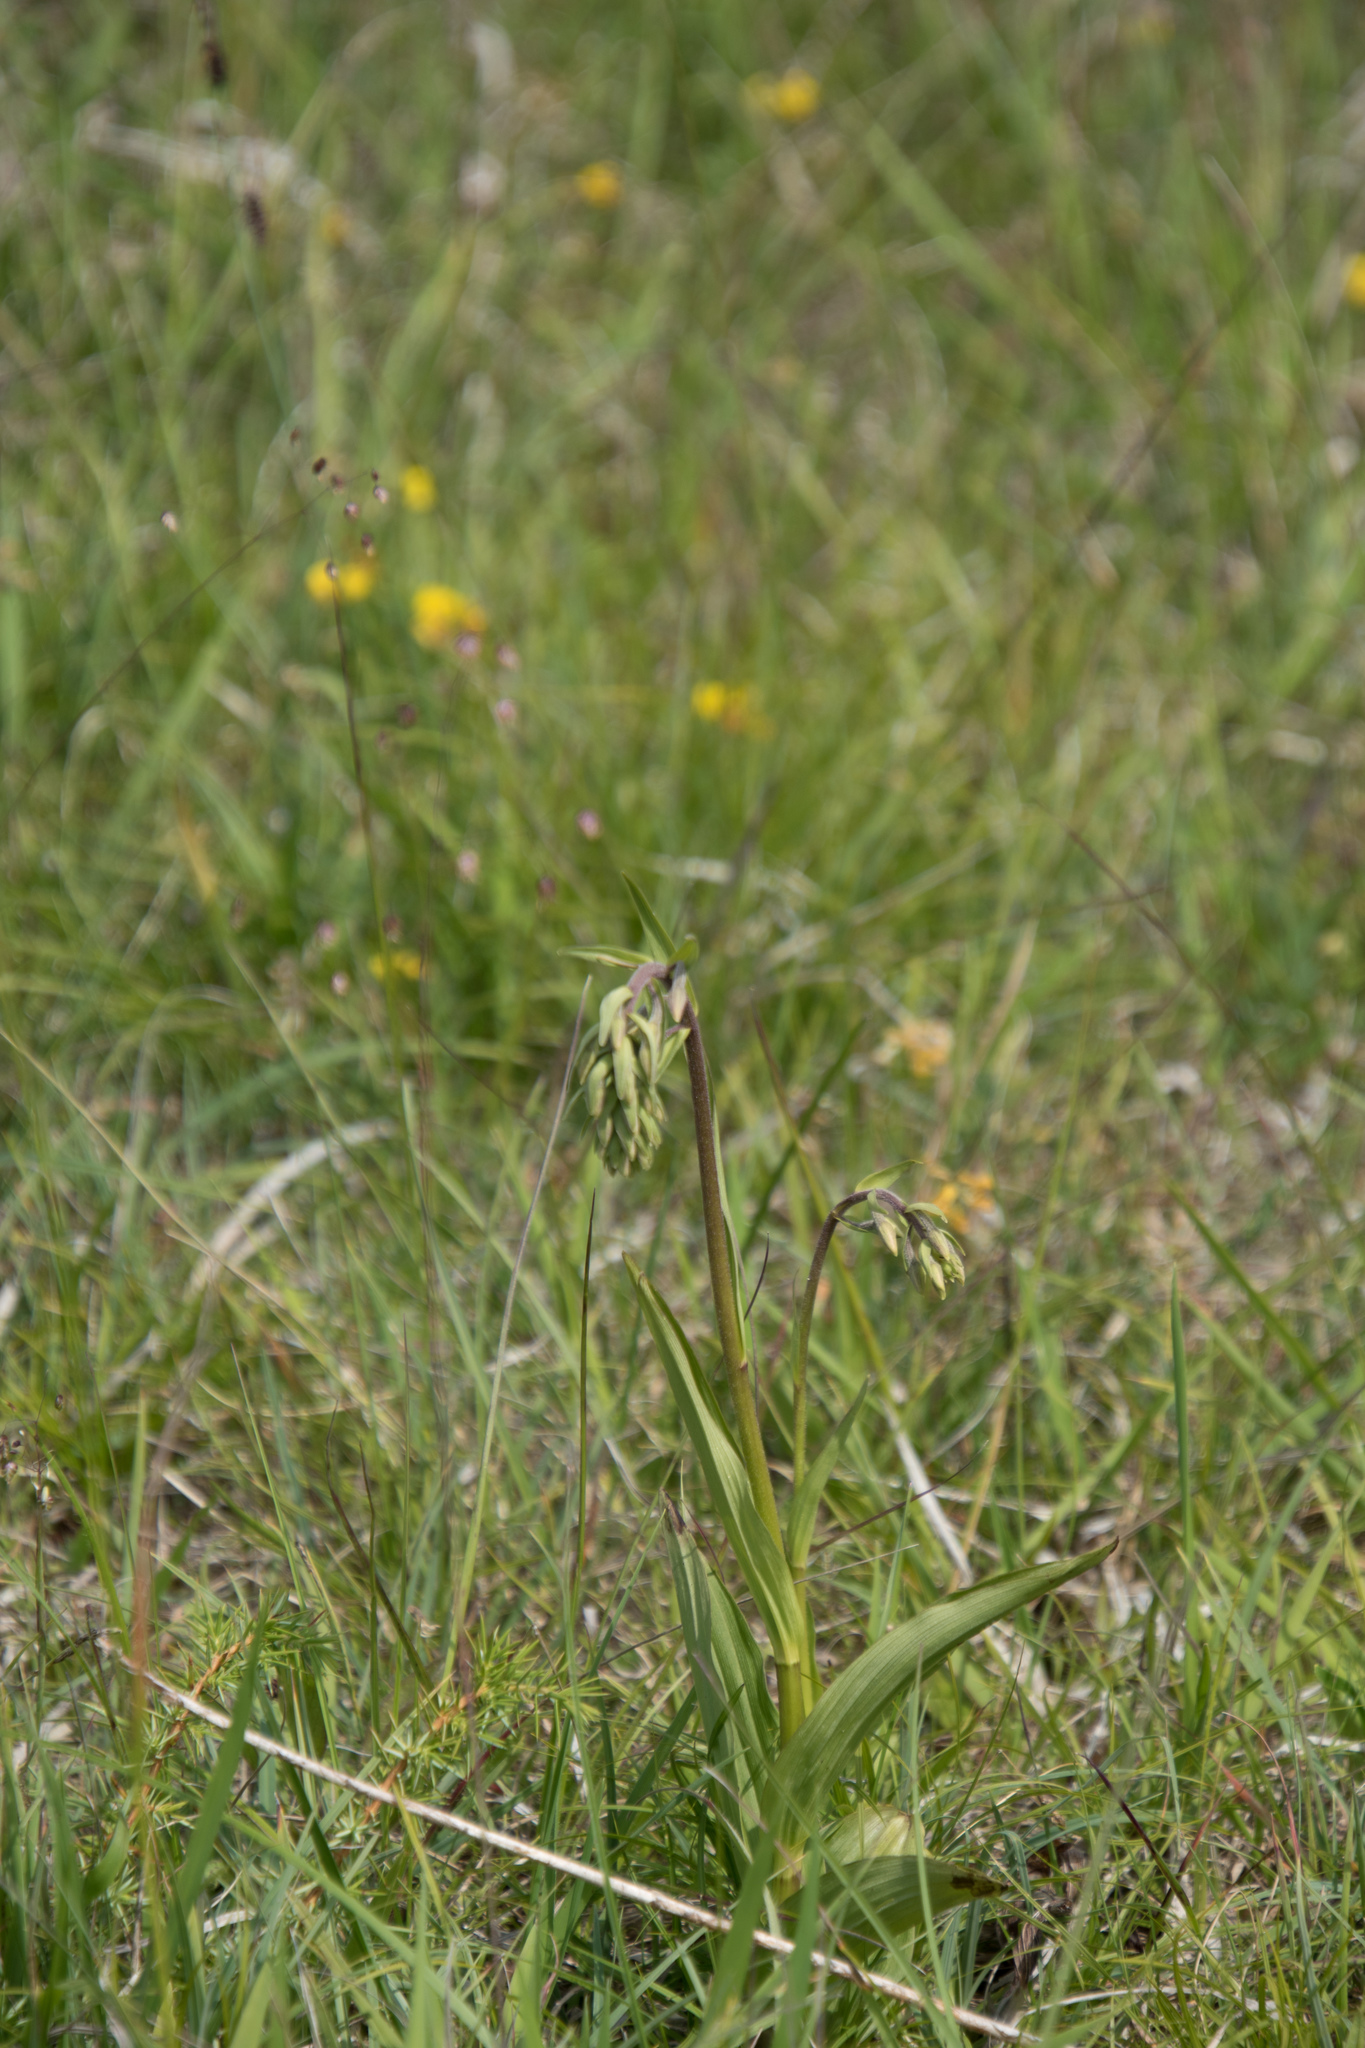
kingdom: Plantae
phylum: Tracheophyta
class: Liliopsida
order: Asparagales
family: Orchidaceae
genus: Epipactis
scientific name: Epipactis palustris
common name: Marsh helleborine
